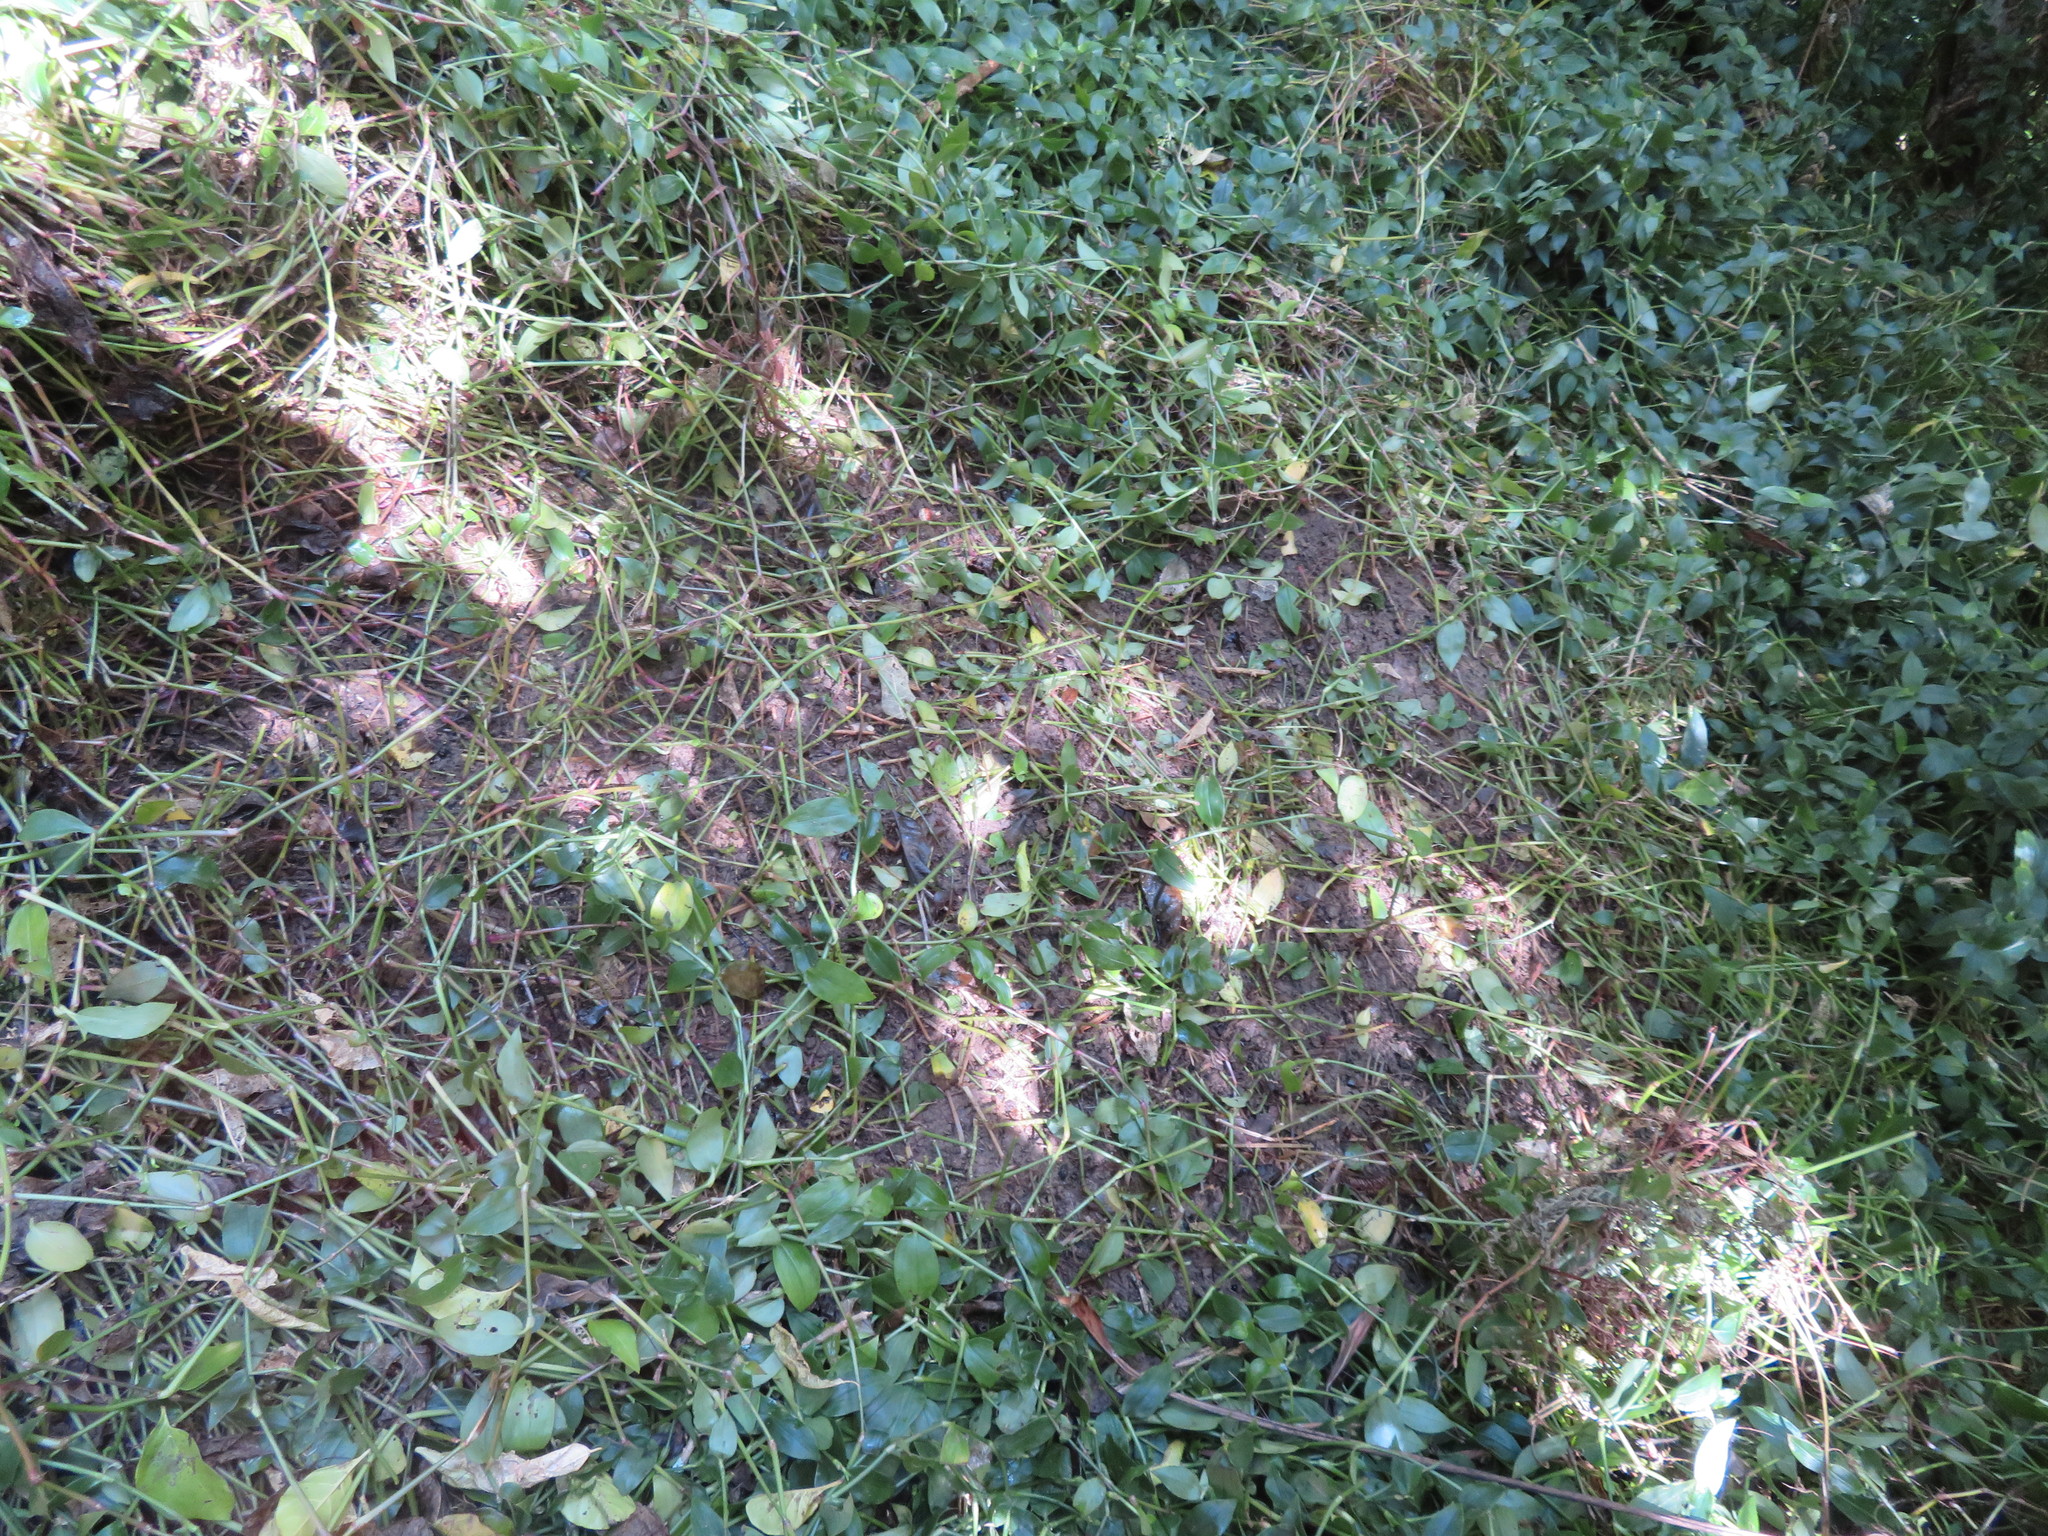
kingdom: Plantae
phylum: Tracheophyta
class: Liliopsida
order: Commelinales
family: Commelinaceae
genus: Tradescantia
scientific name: Tradescantia fluminensis
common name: Wandering-jew
